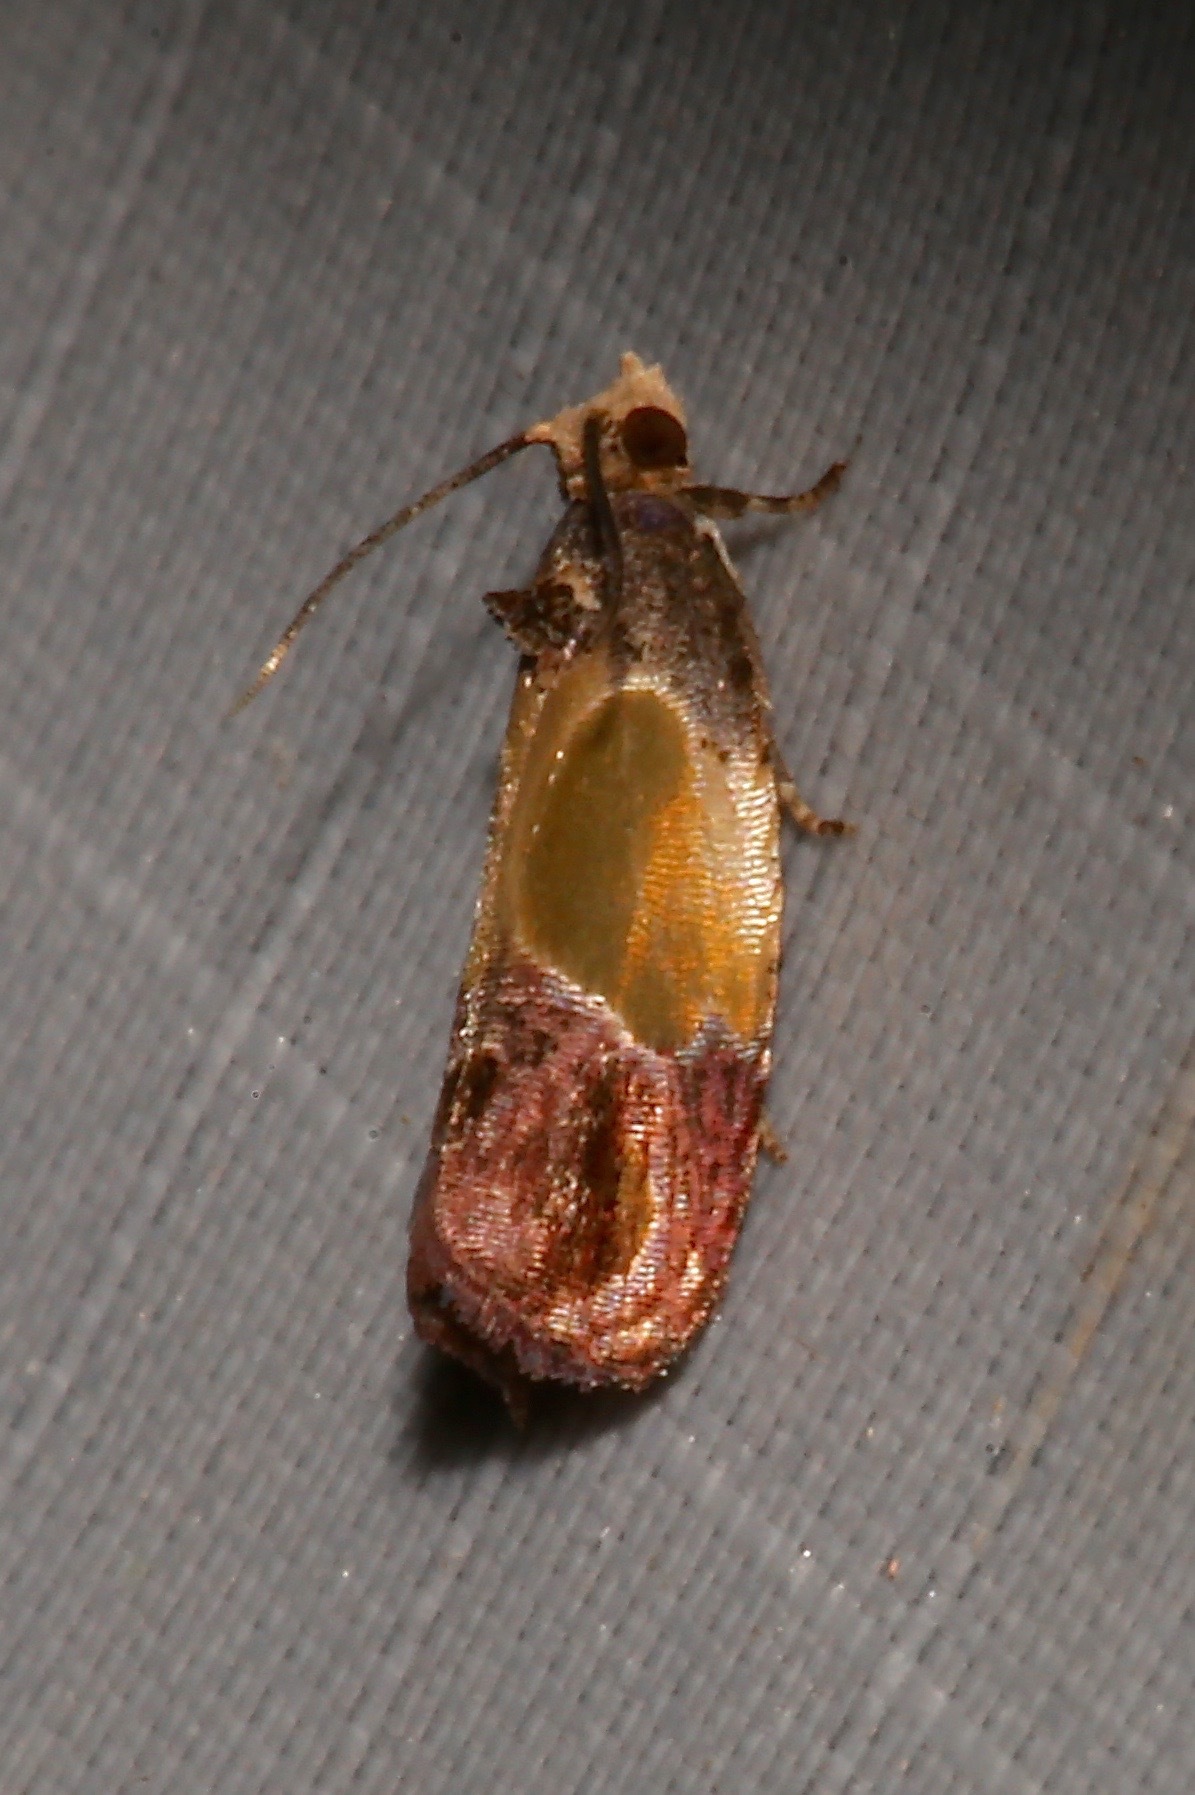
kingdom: Animalia
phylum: Arthropoda
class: Insecta
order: Lepidoptera
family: Tortricidae
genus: Eumarozia
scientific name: Eumarozia malachitana
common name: Sculptured moth
